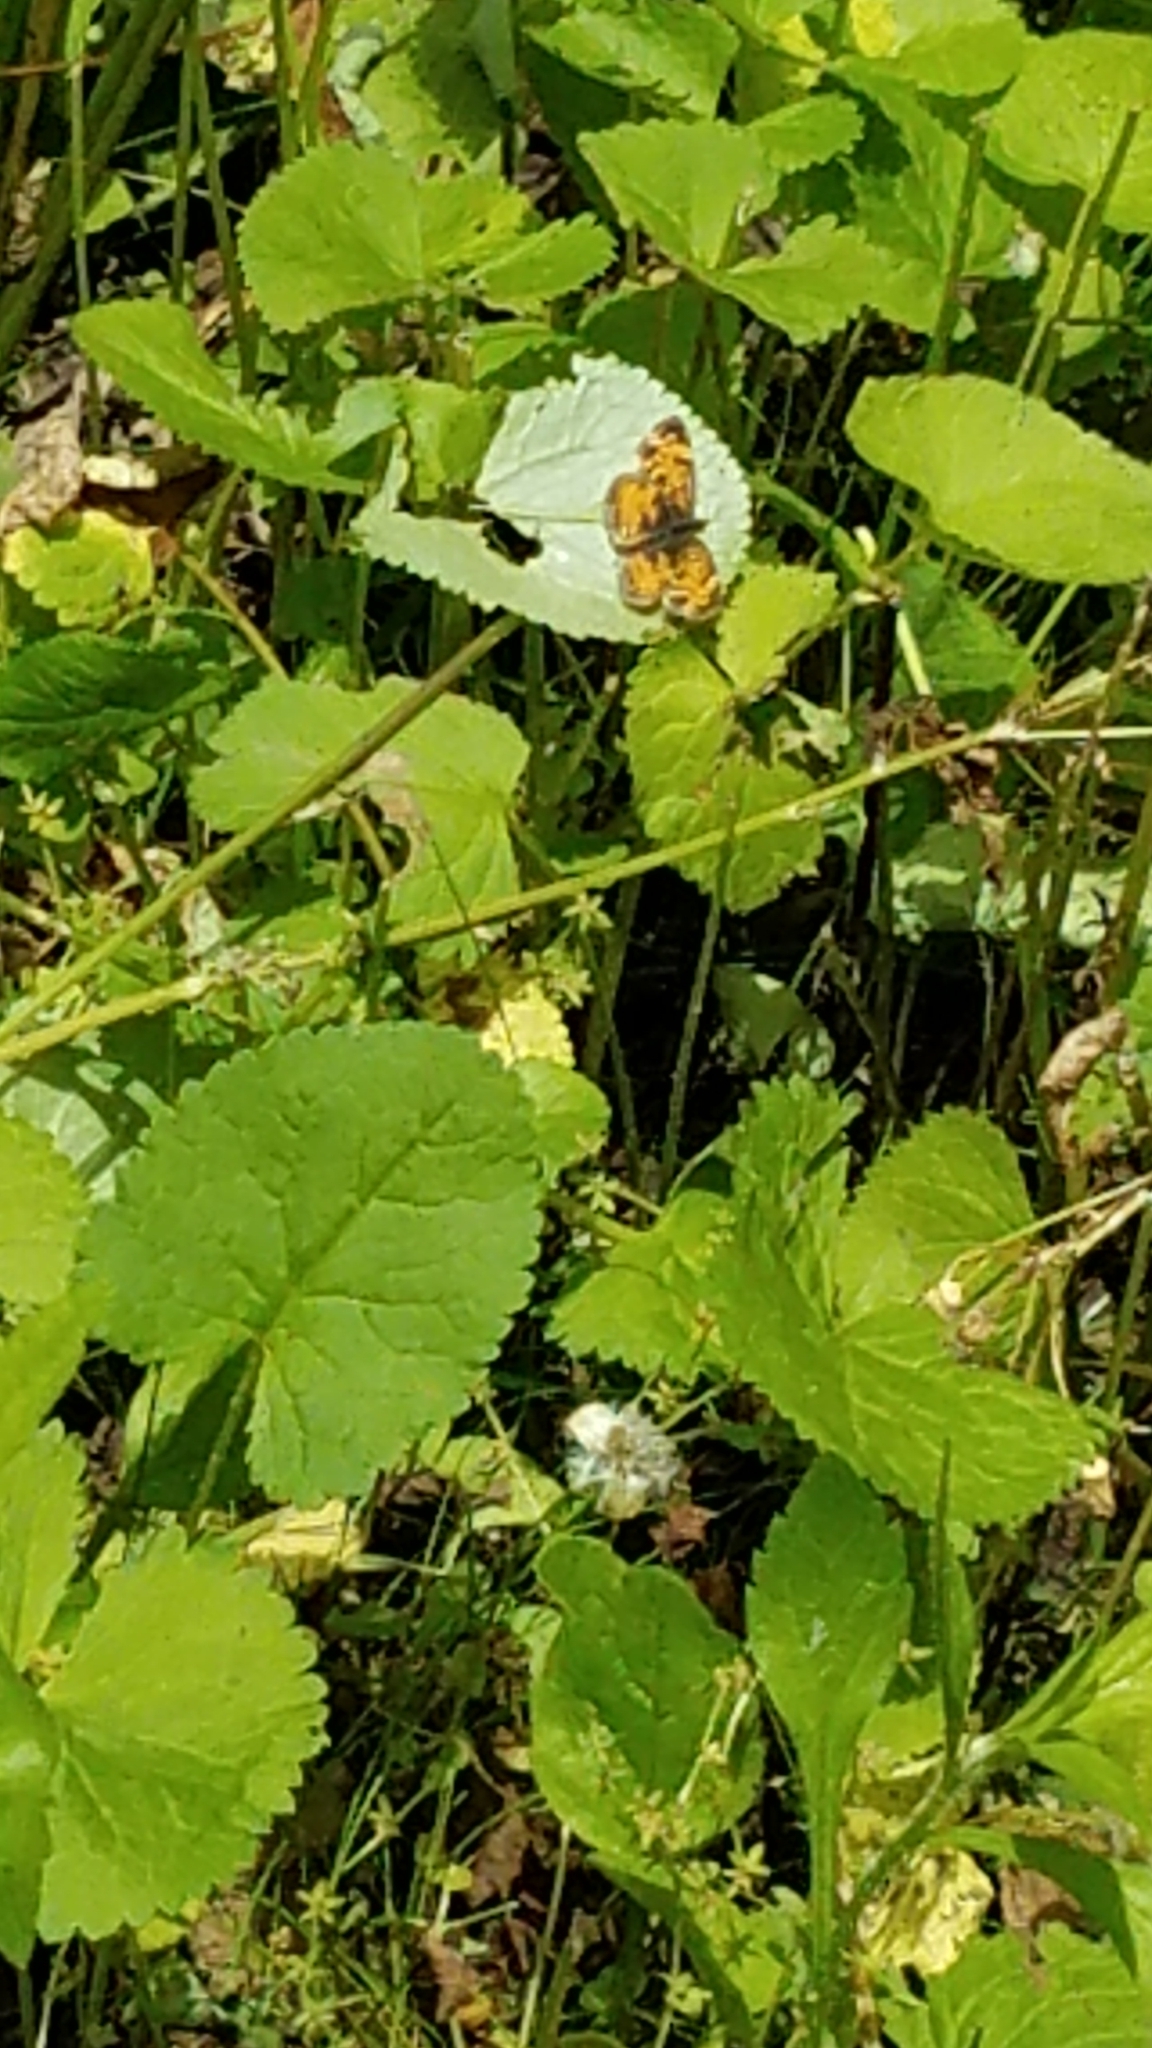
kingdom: Animalia
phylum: Arthropoda
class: Insecta
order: Lepidoptera
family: Nymphalidae
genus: Phyciodes
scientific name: Phyciodes tharos
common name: Pearl crescent
